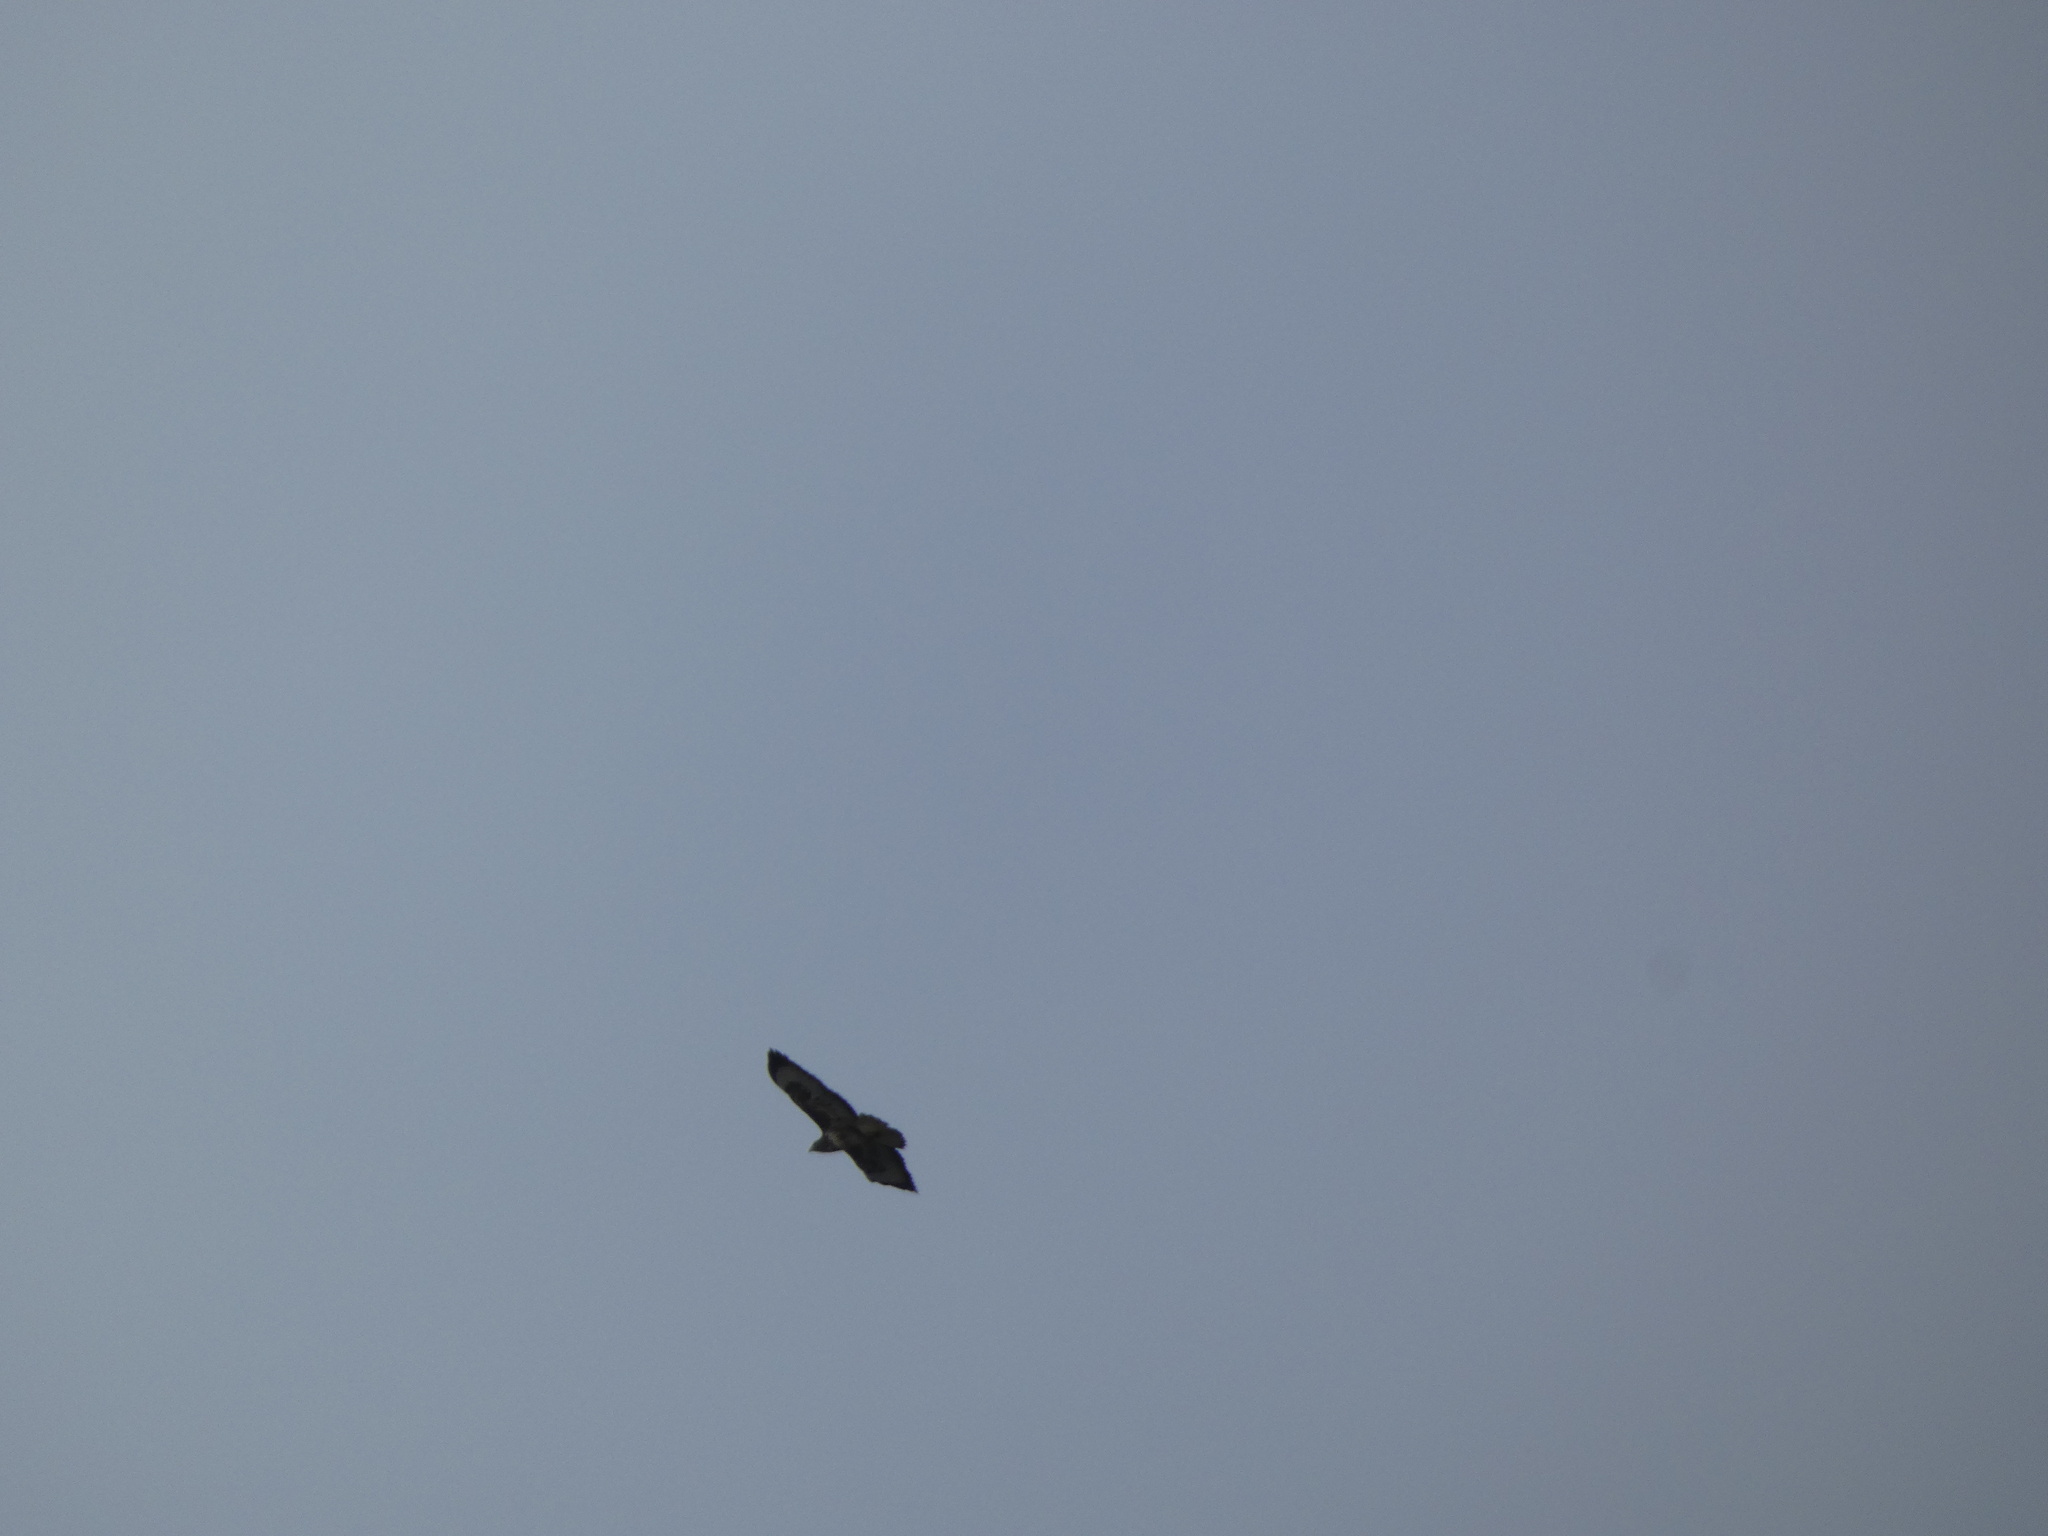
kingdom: Animalia
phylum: Chordata
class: Aves
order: Accipitriformes
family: Accipitridae
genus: Buteo
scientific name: Buteo buteo
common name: Common buzzard
